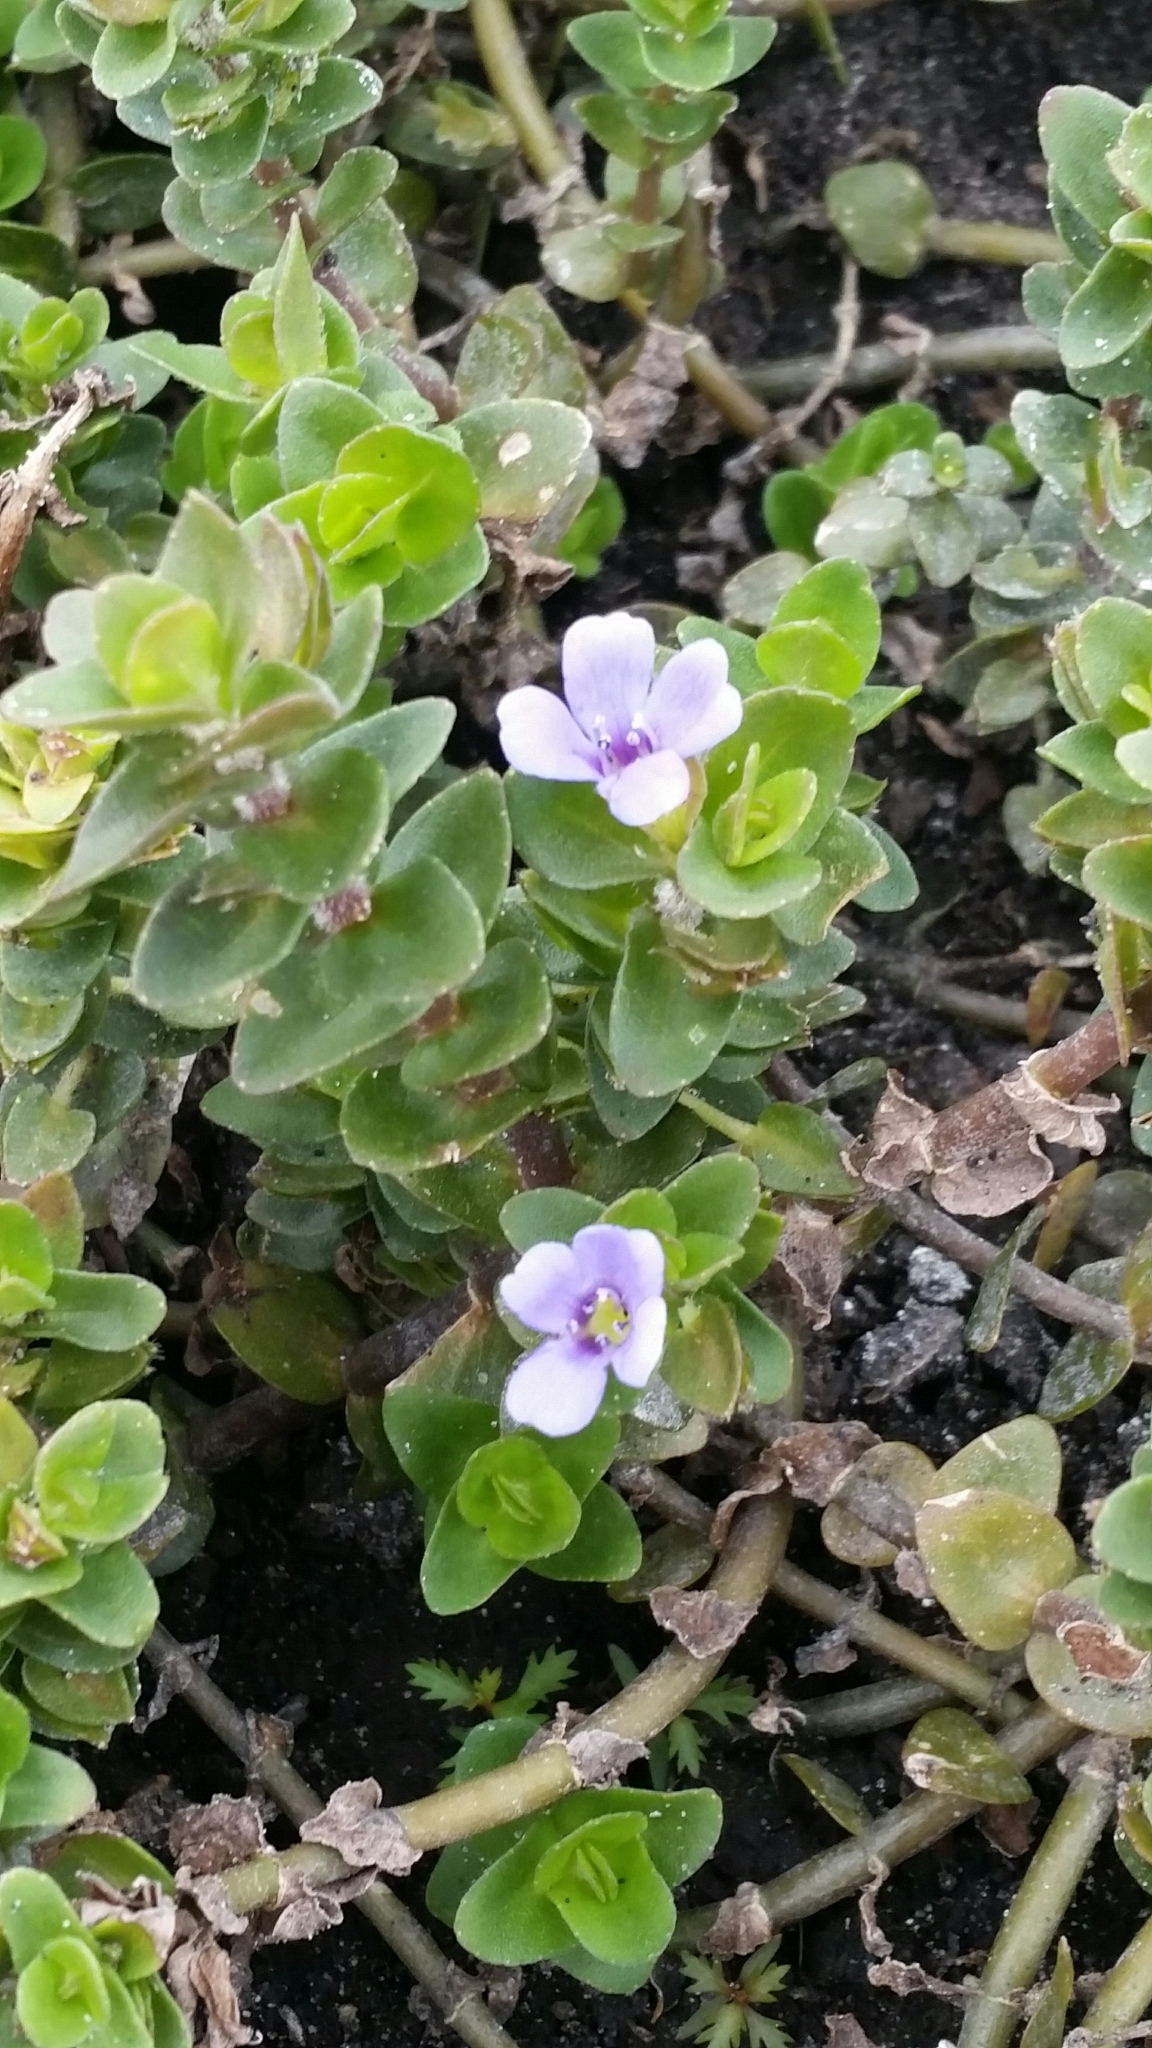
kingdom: Plantae
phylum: Tracheophyta
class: Magnoliopsida
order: Lamiales
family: Plantaginaceae
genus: Bacopa
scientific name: Bacopa caroliniana
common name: Lemon bacopa
